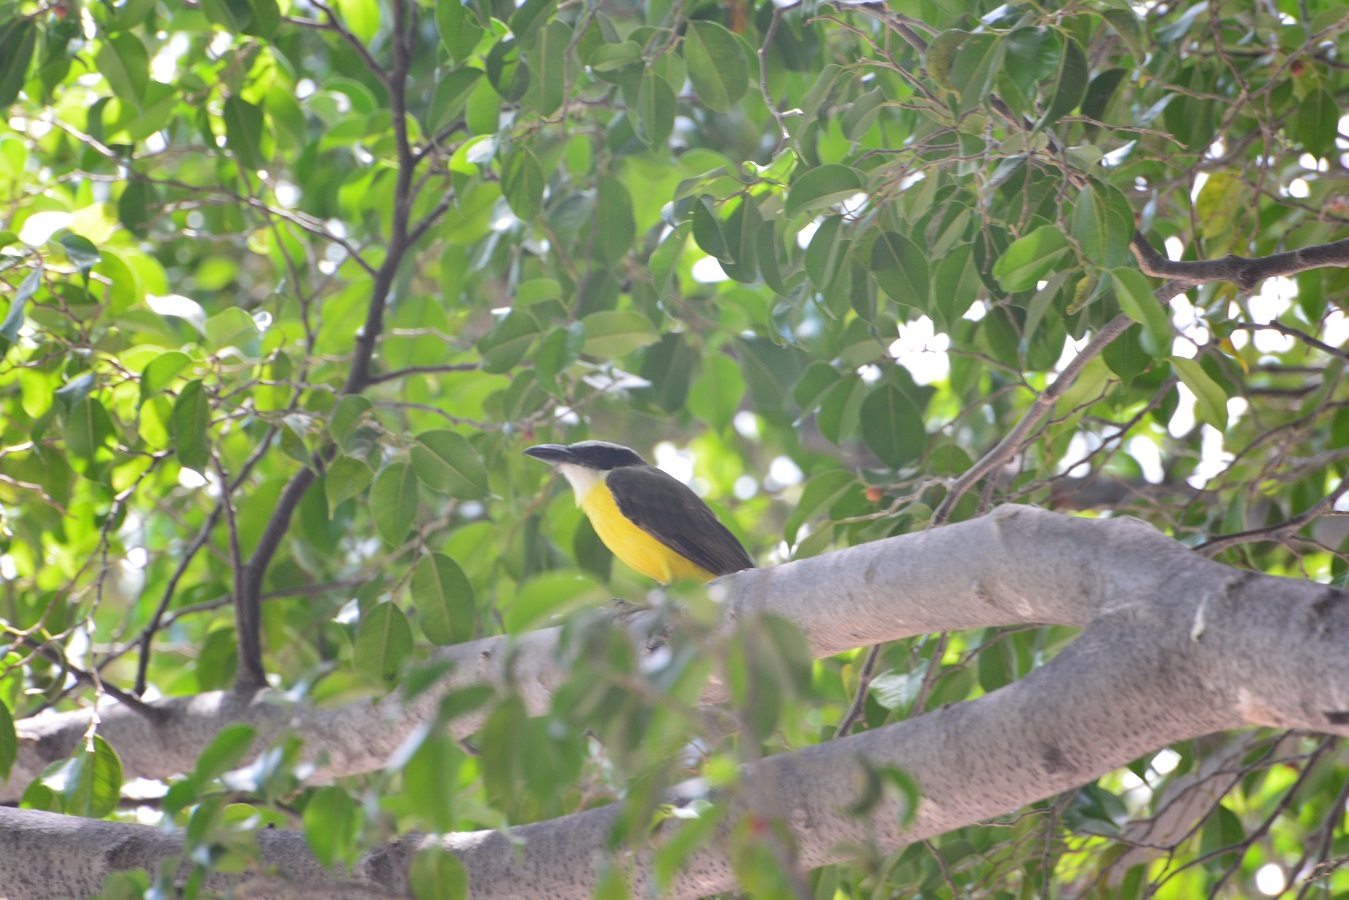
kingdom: Animalia
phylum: Chordata
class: Aves
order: Passeriformes
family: Tyrannidae
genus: Megarynchus
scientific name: Megarynchus pitangua
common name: Boat-billed flycatcher
